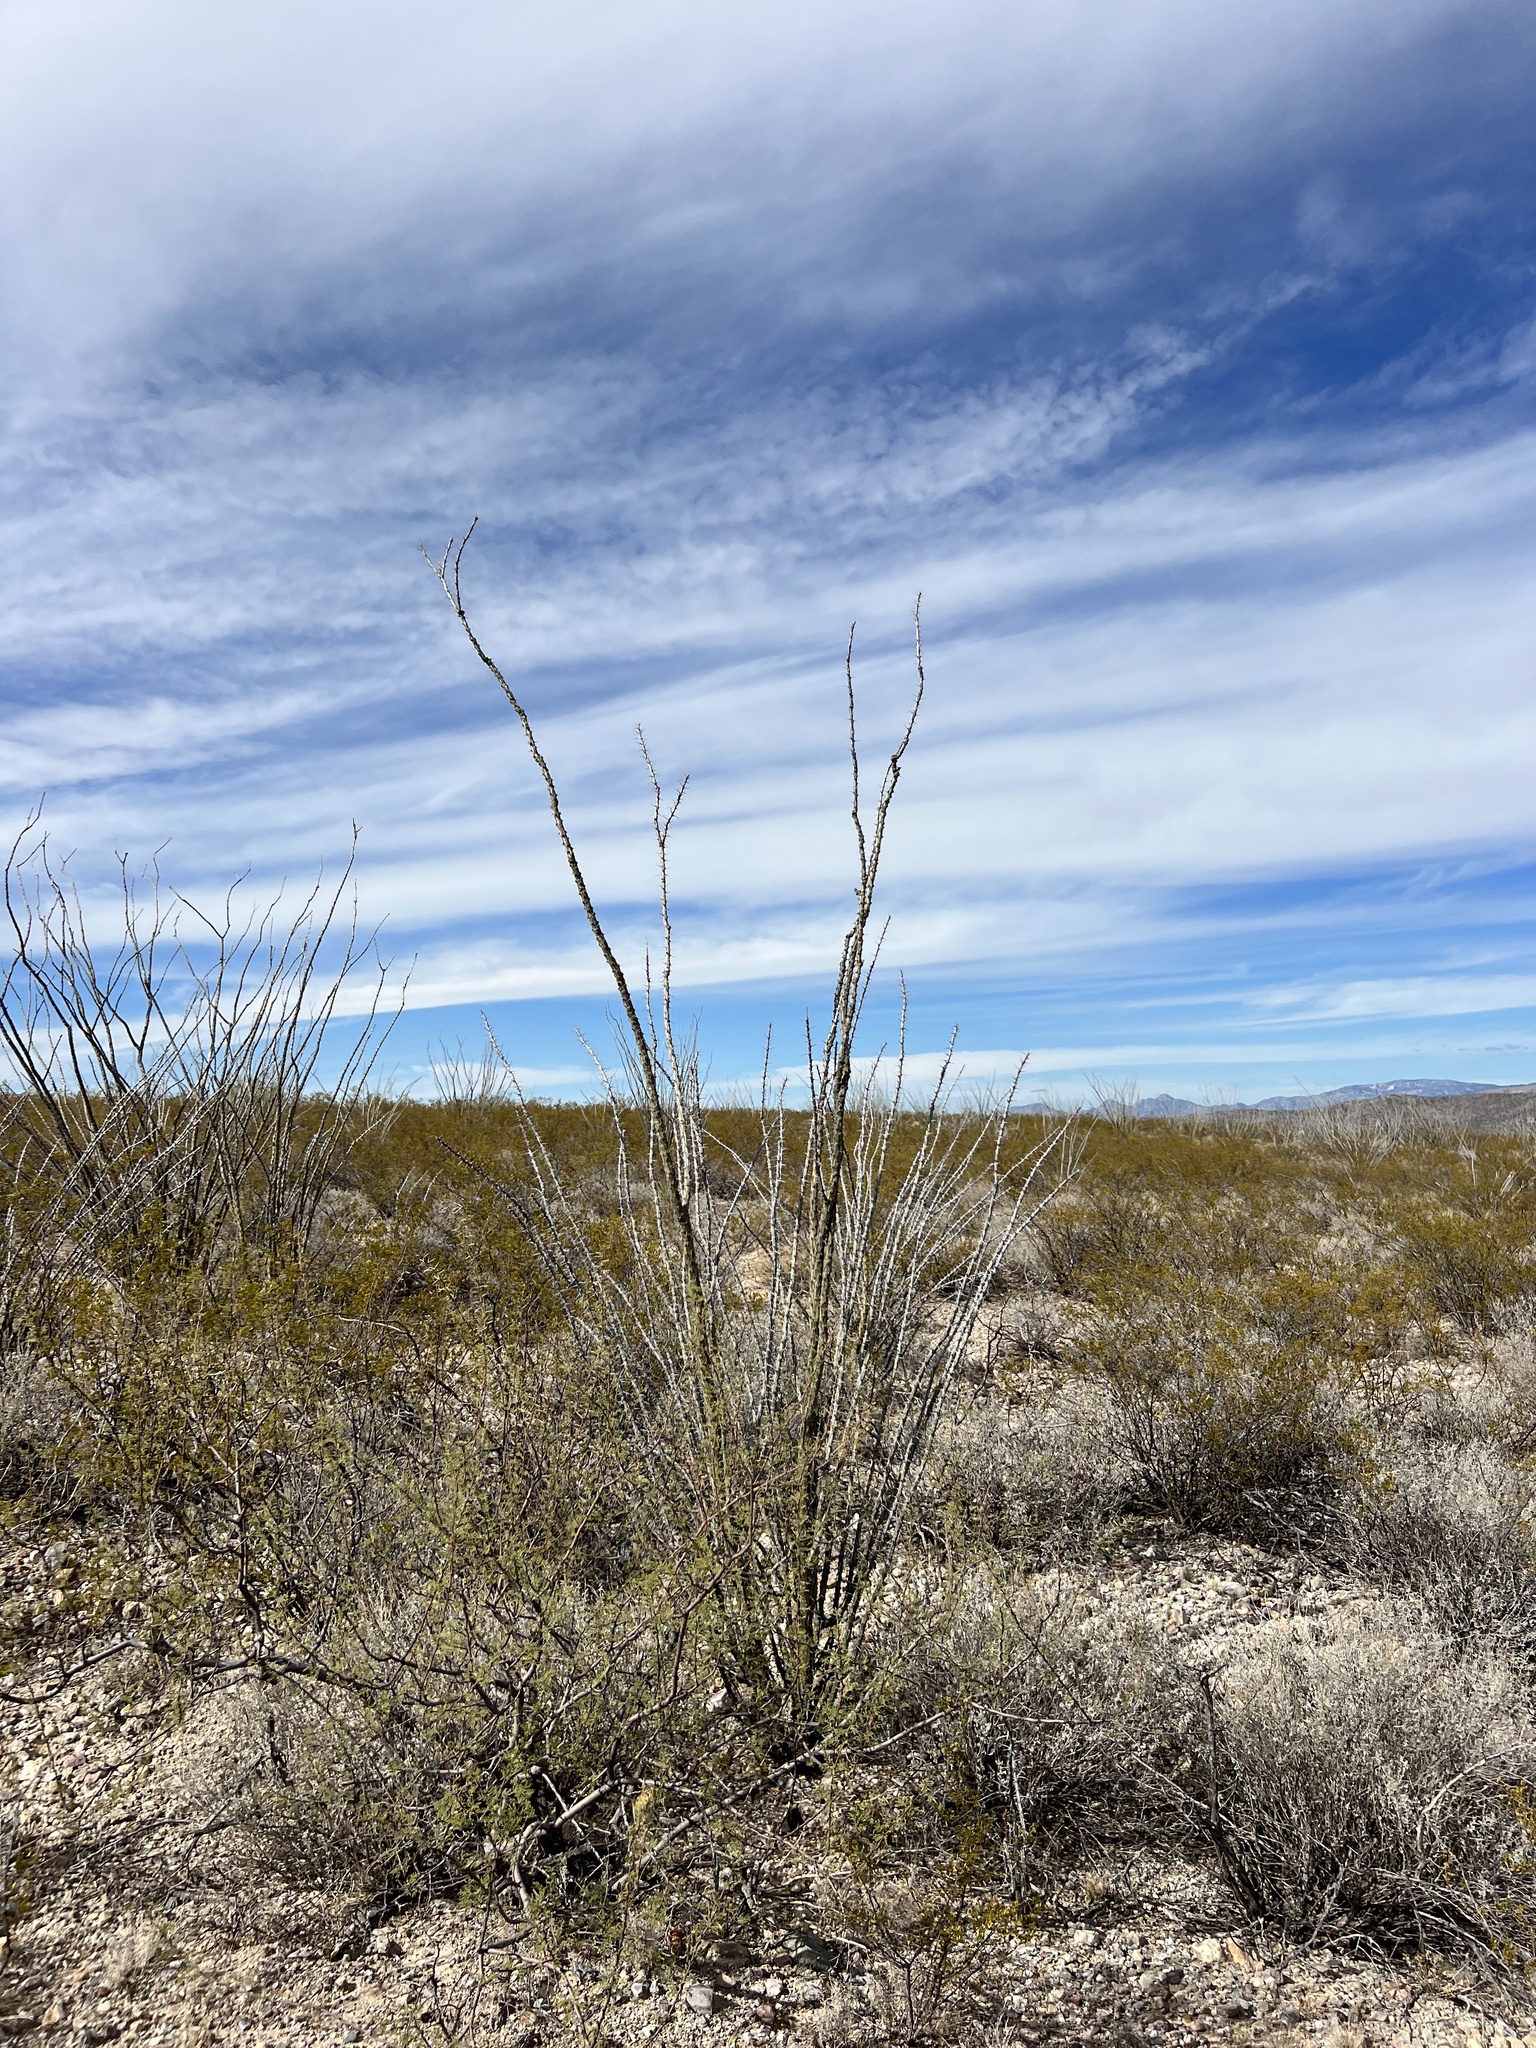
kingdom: Plantae
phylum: Tracheophyta
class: Magnoliopsida
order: Ericales
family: Fouquieriaceae
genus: Fouquieria
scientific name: Fouquieria splendens
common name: Vine-cactus
